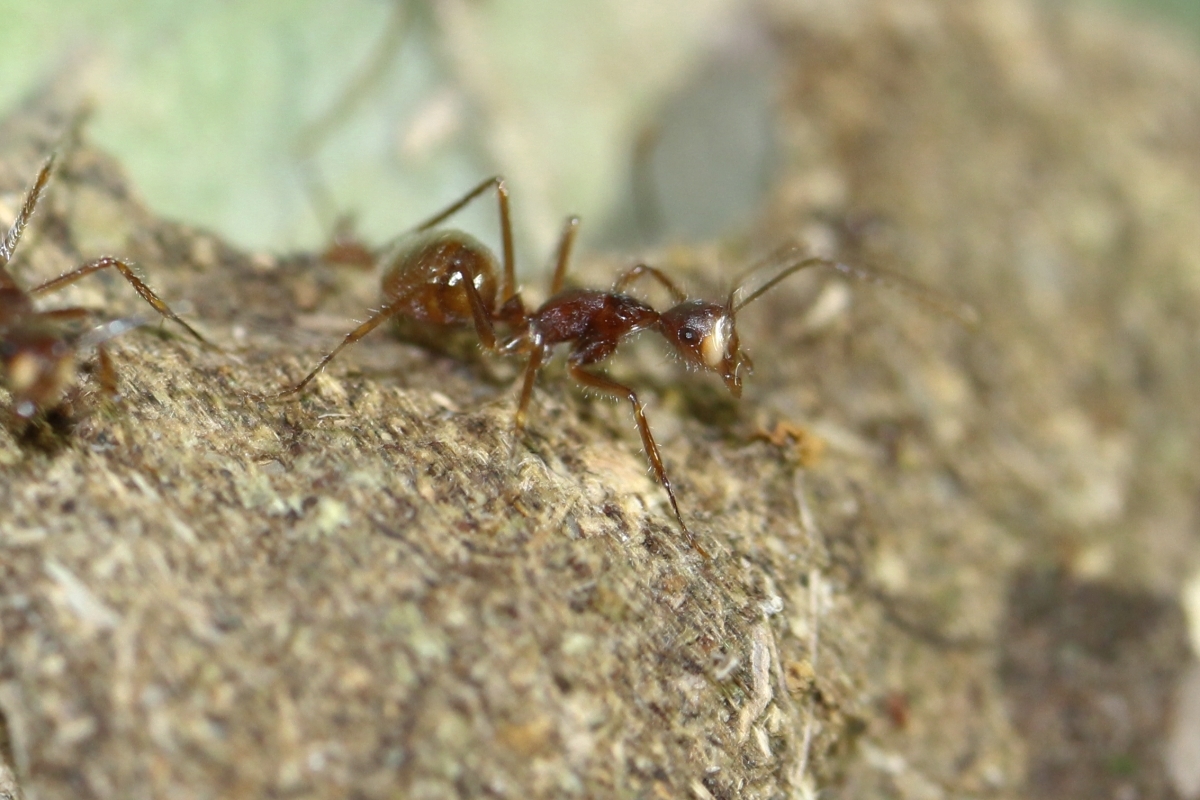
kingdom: Animalia
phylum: Arthropoda
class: Insecta
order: Hymenoptera
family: Formicidae
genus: Dendromyrmex
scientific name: Dendromyrmex chartifex
